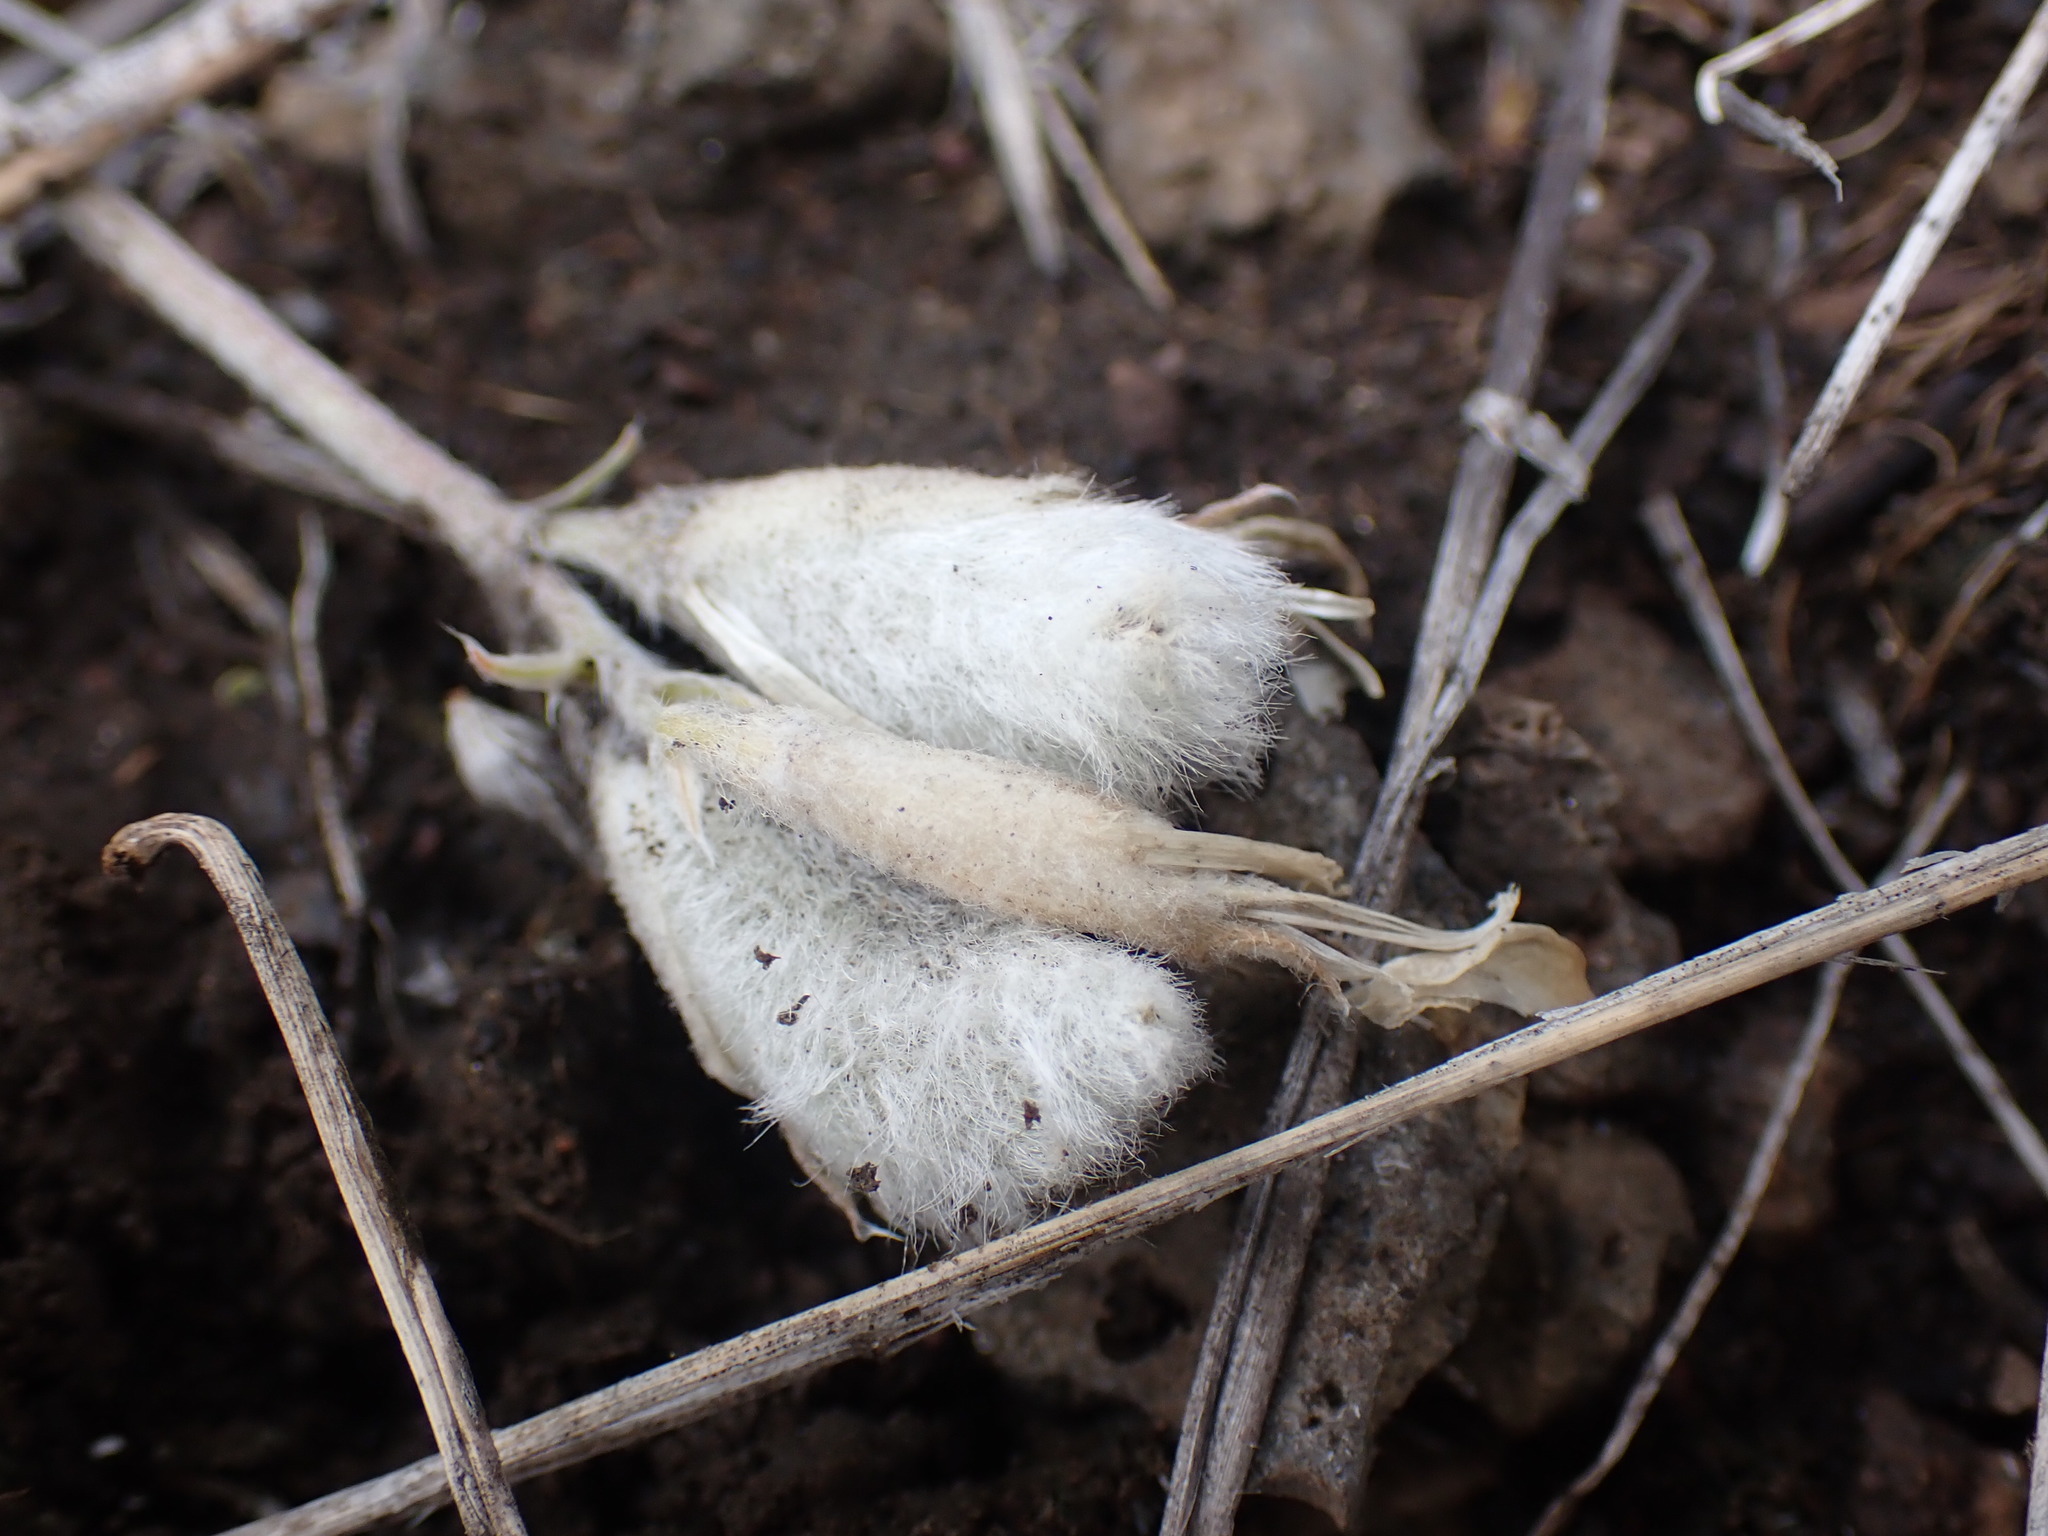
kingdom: Plantae
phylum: Tracheophyta
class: Magnoliopsida
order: Fabales
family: Fabaceae
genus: Astragalus
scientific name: Astragalus purshii
